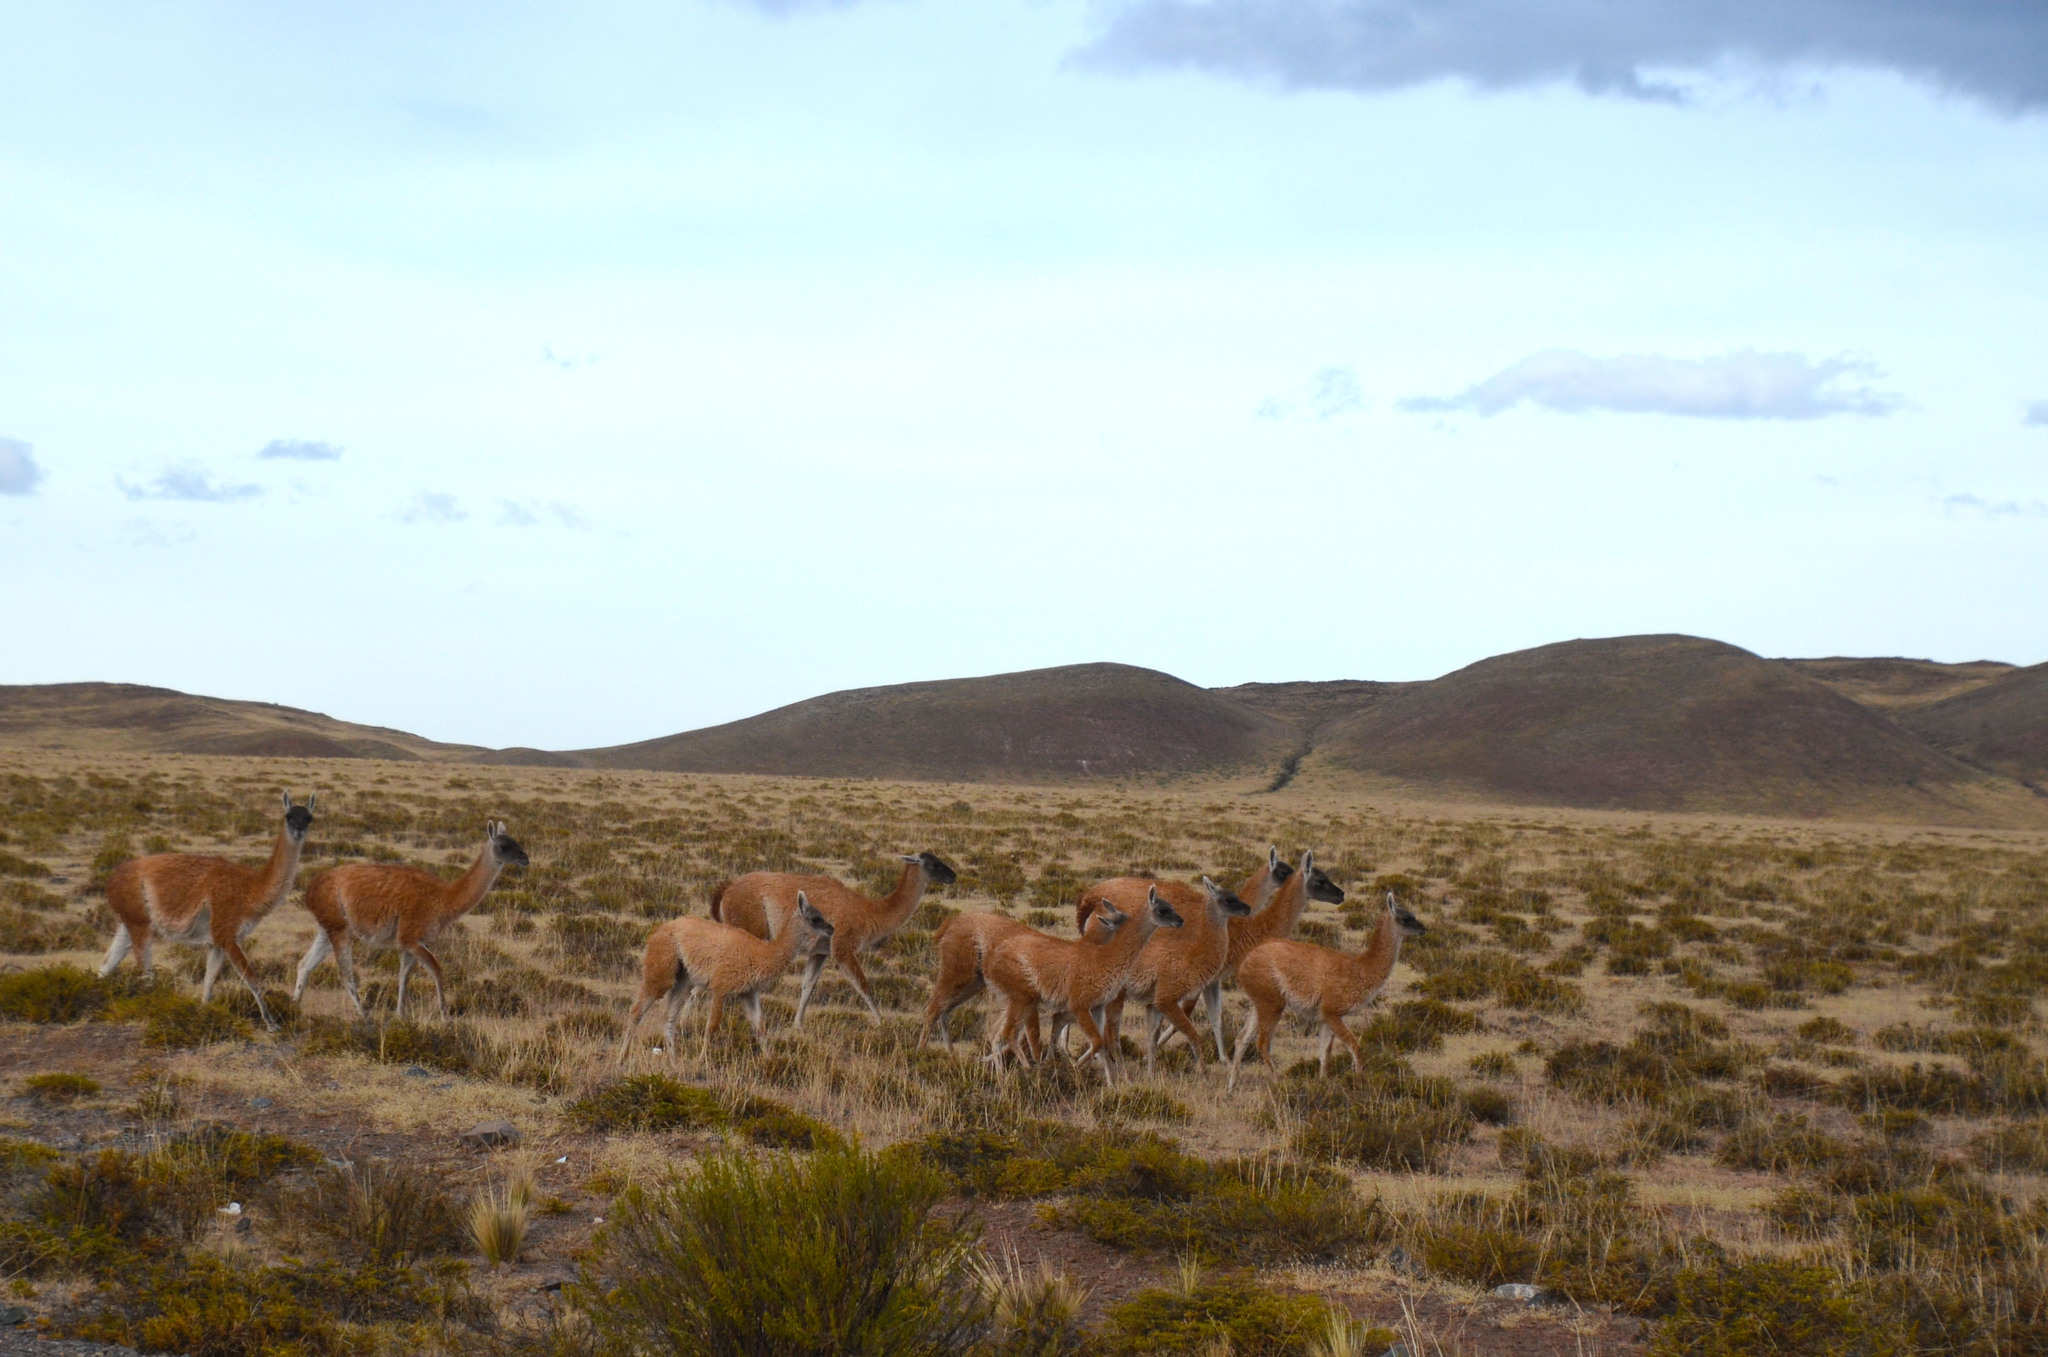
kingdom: Animalia
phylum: Chordata
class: Mammalia
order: Artiodactyla
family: Camelidae
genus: Lama
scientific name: Lama glama
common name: Llama
